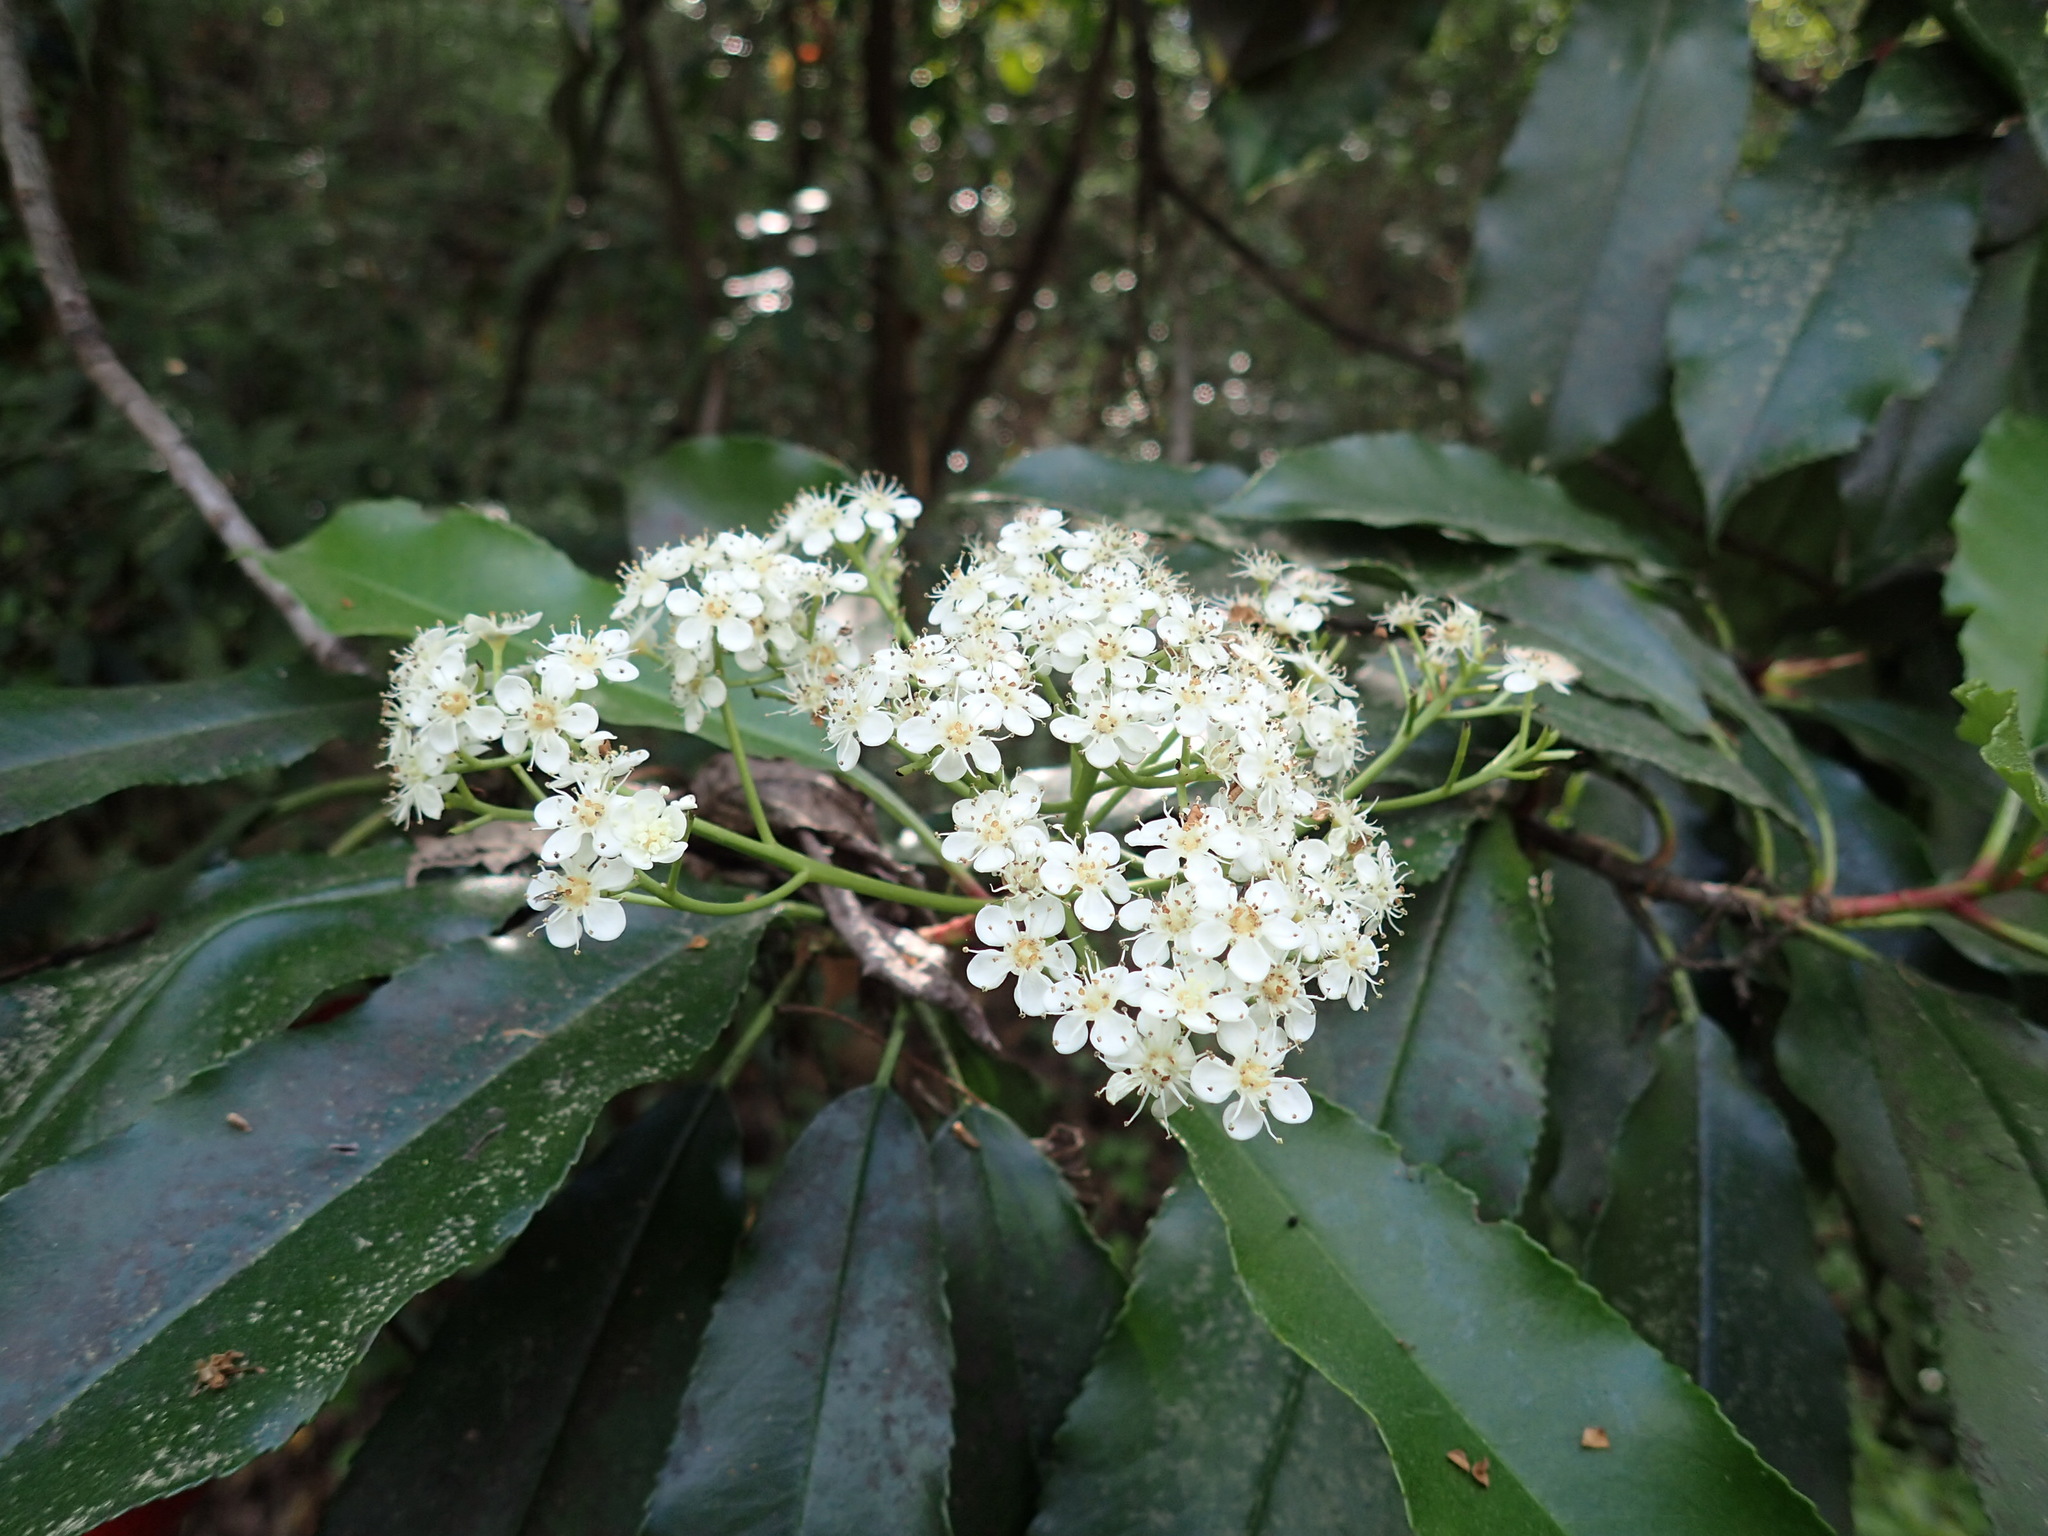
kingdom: Plantae
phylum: Tracheophyta
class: Magnoliopsida
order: Rosales
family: Rosaceae
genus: Photinia
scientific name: Photinia serratifolia
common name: Taiwanese photinia
